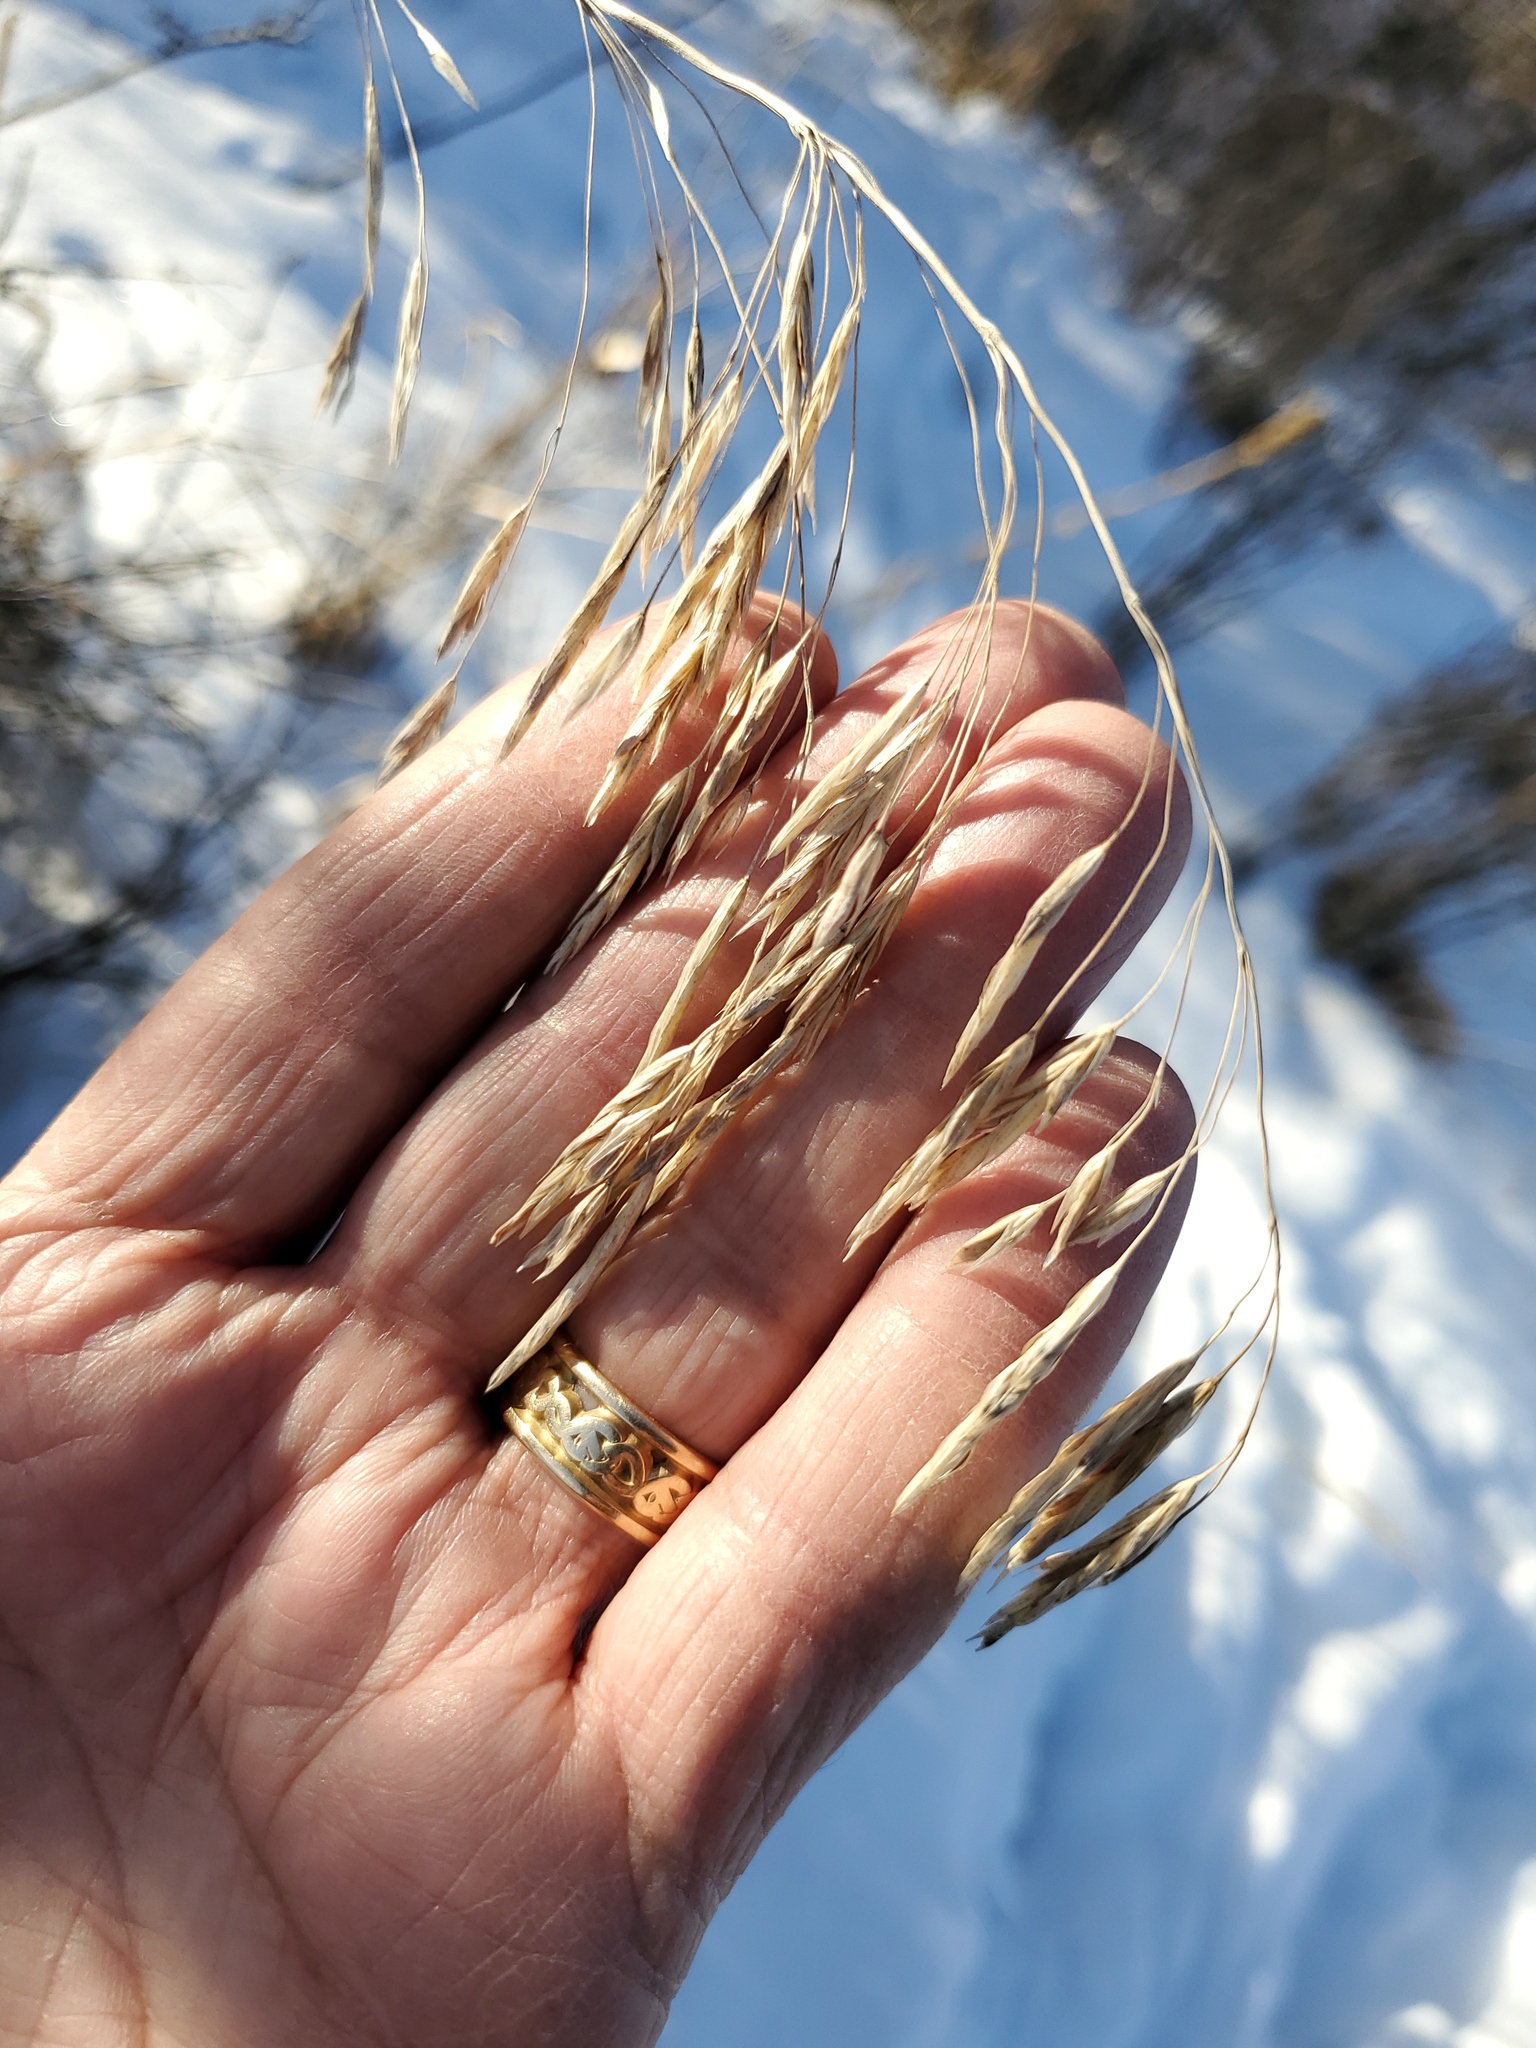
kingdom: Plantae
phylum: Tracheophyta
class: Liliopsida
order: Poales
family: Poaceae
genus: Bromus
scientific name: Bromus inermis
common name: Smooth brome
